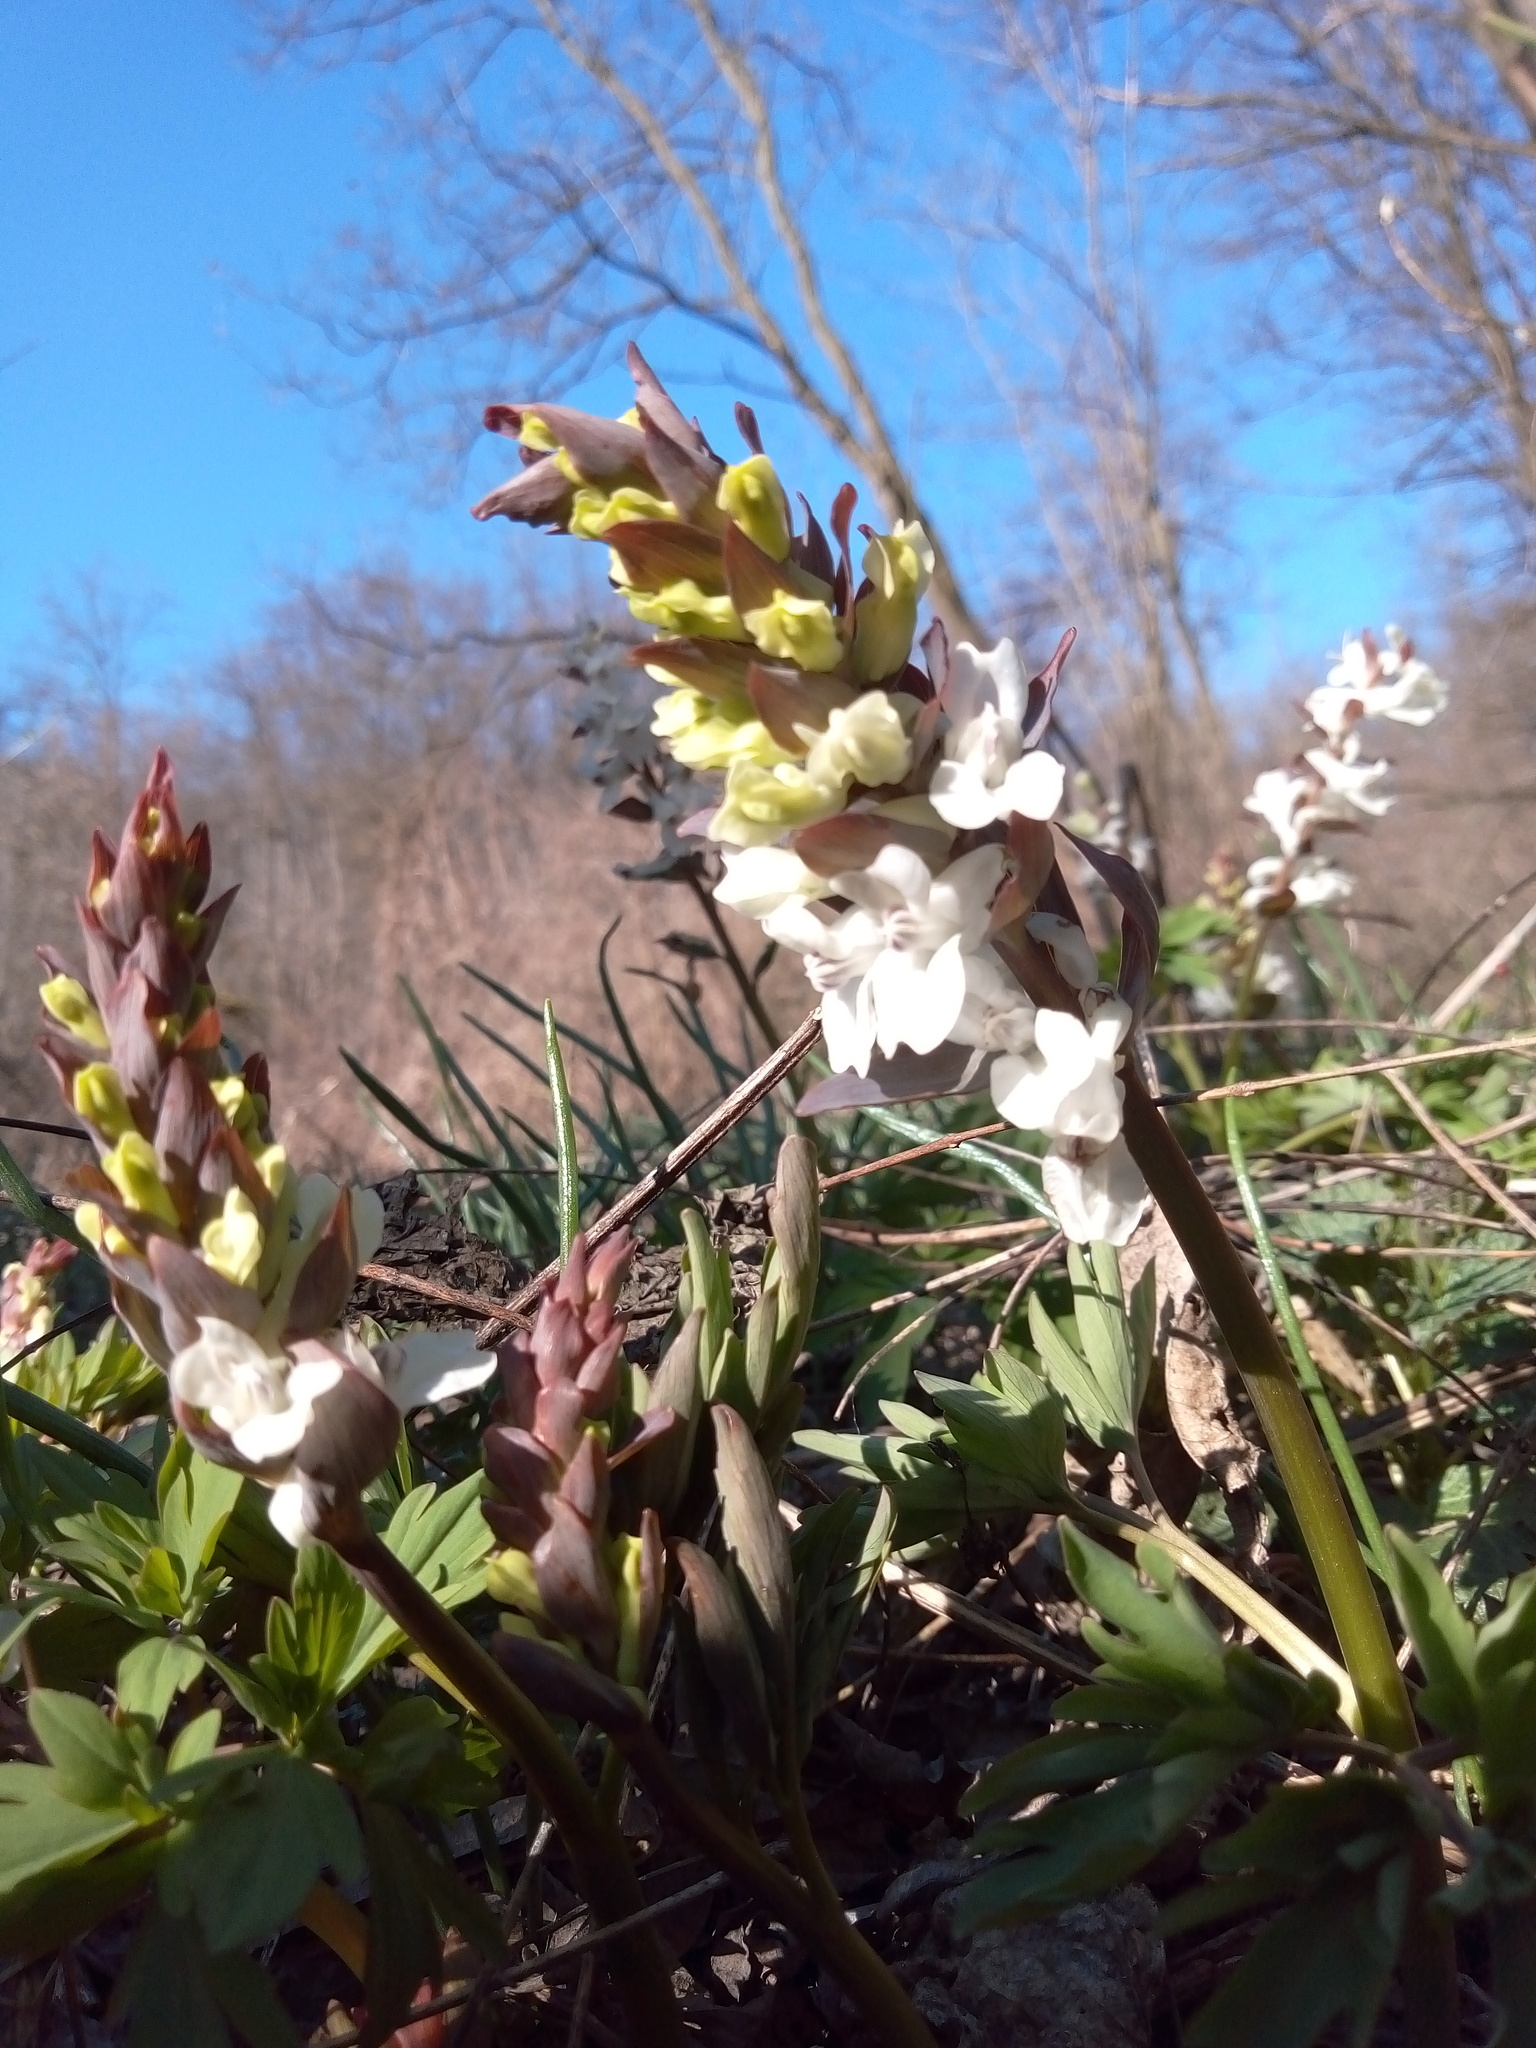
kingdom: Plantae
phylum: Tracheophyta
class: Magnoliopsida
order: Ranunculales
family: Papaveraceae
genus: Corydalis
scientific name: Corydalis cava
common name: Hollowroot
